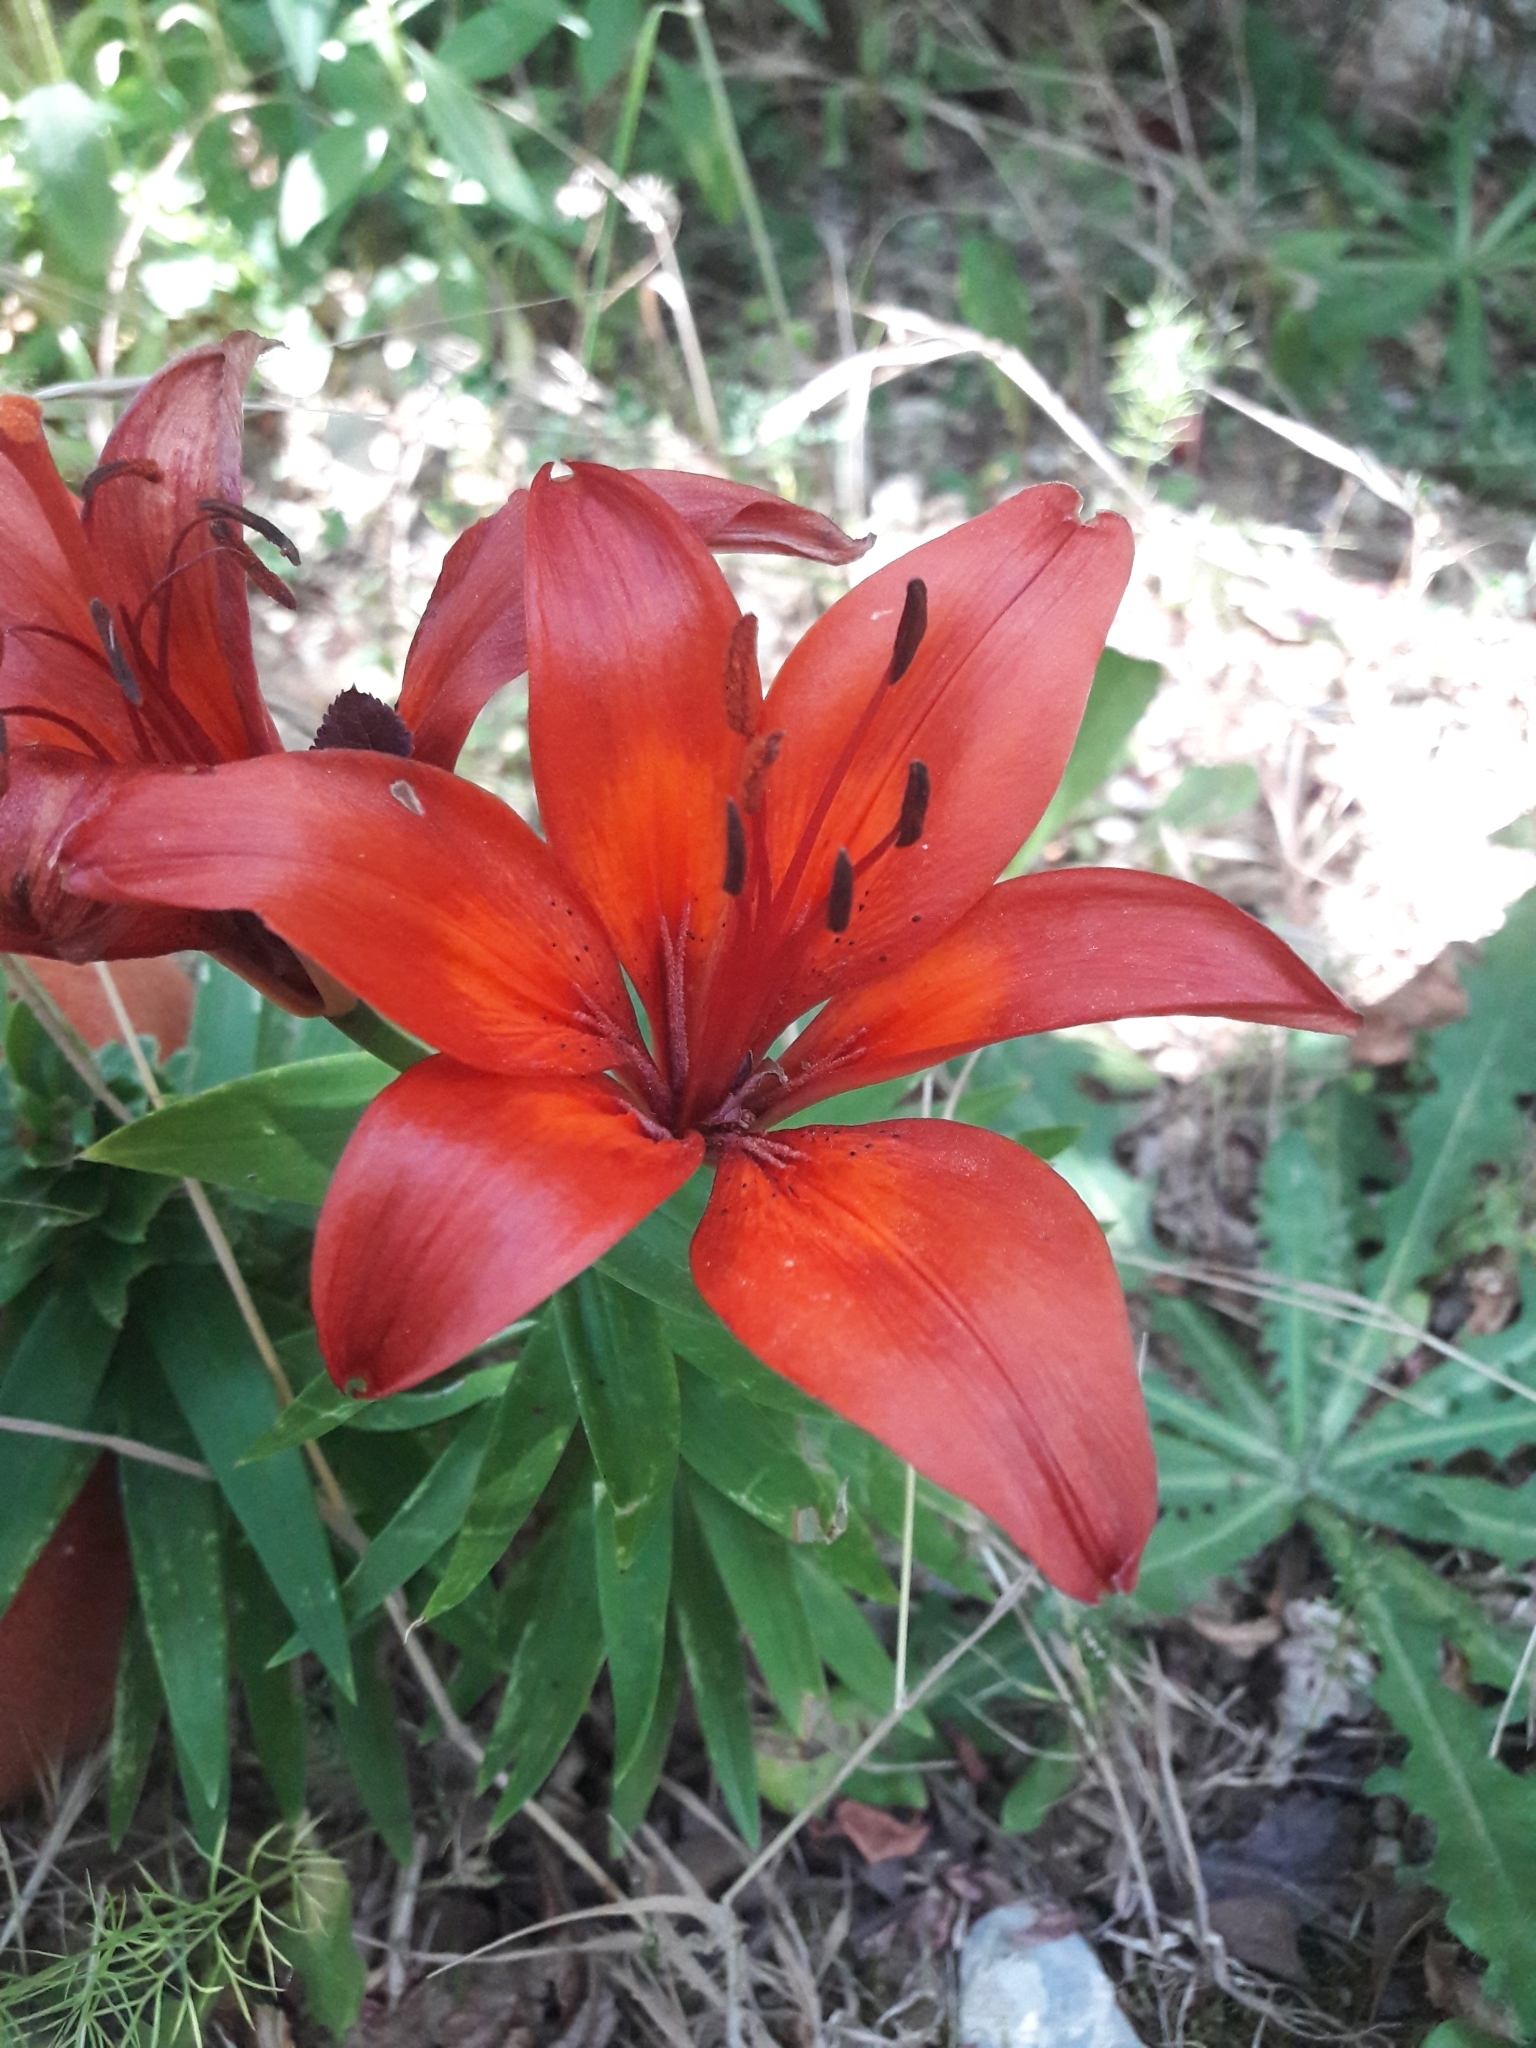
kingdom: Plantae
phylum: Tracheophyta
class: Liliopsida
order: Liliales
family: Liliaceae
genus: Lilium
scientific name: Lilium bulbiferum
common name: Orange lily
